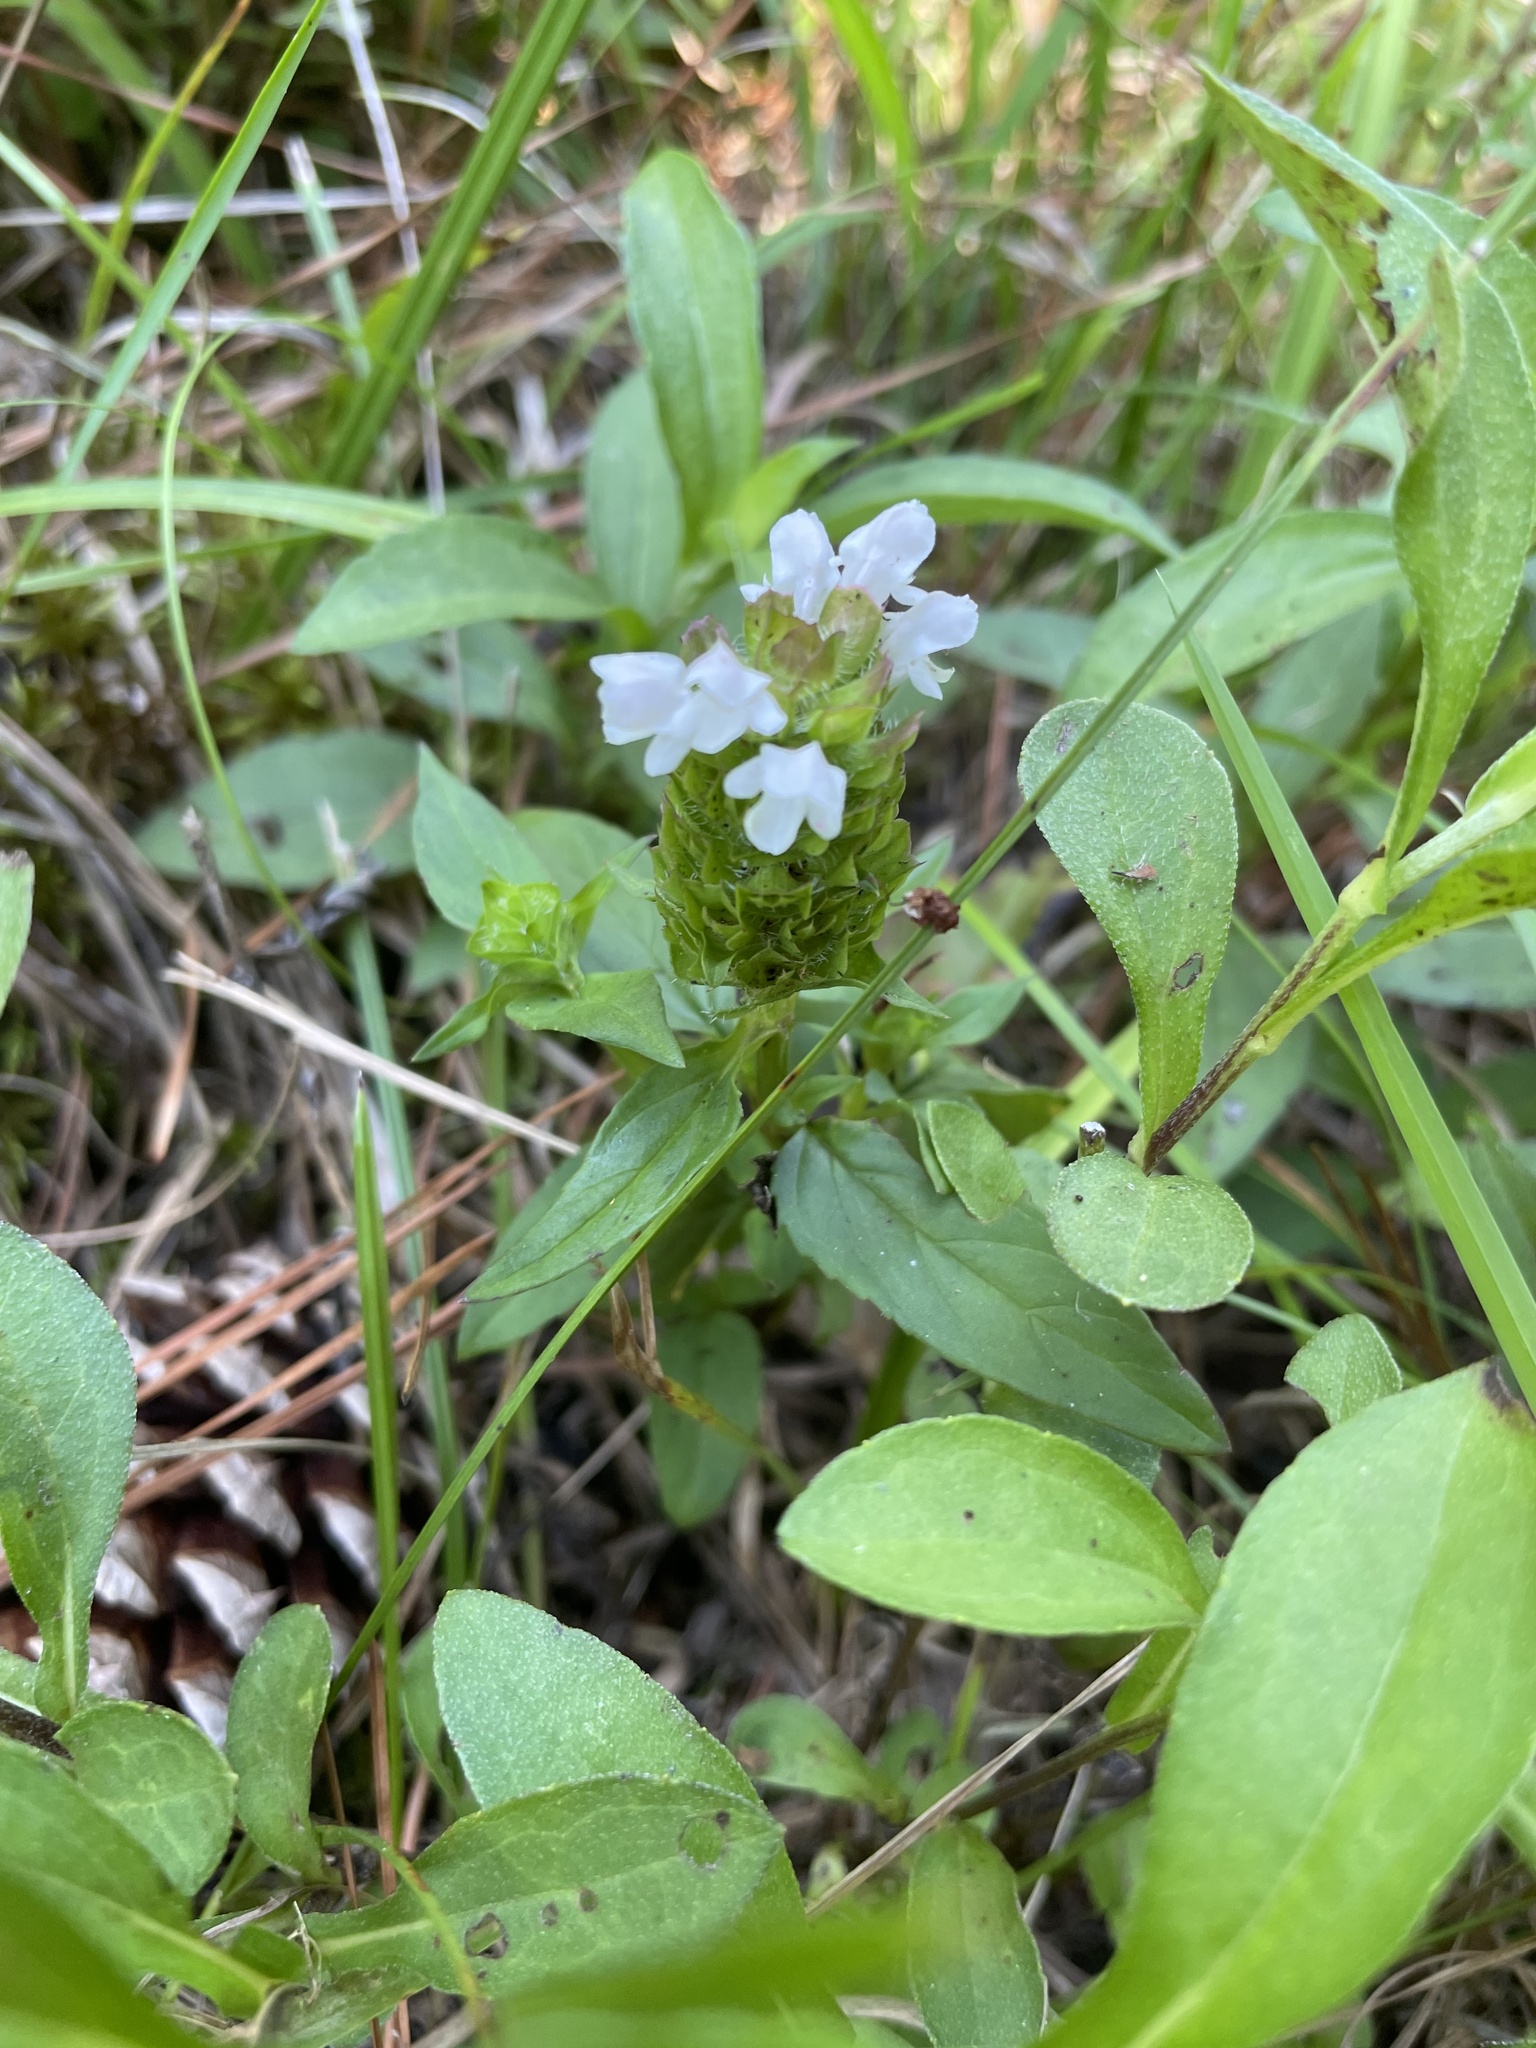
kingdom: Plantae
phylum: Tracheophyta
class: Magnoliopsida
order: Lamiales
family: Lamiaceae
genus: Prunella
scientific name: Prunella vulgaris
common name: Heal-all
